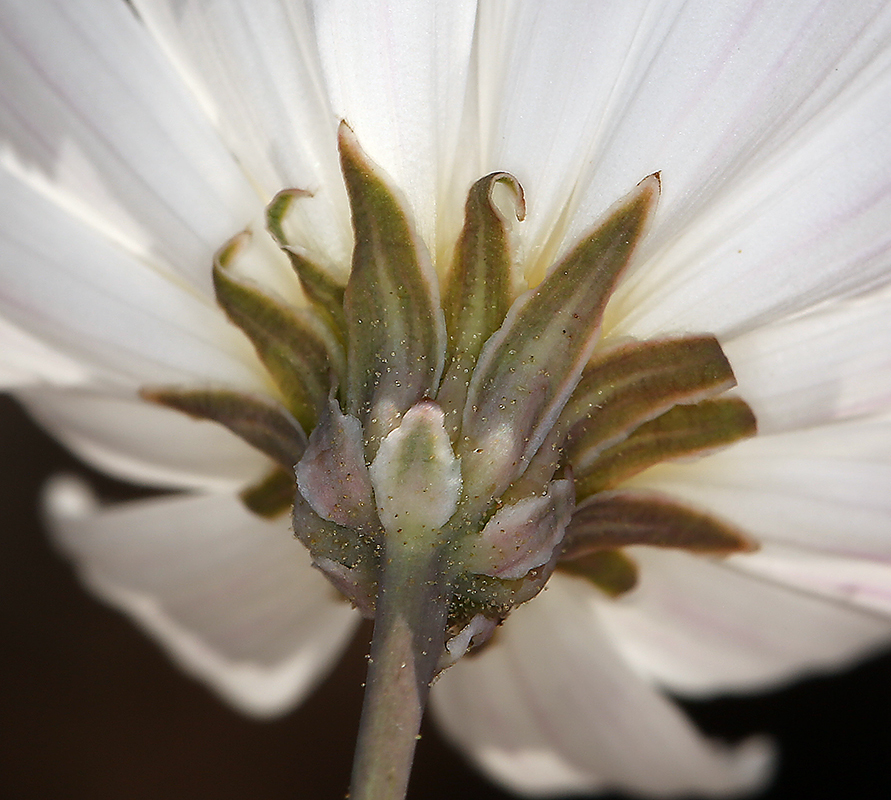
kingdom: Plantae
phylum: Tracheophyta
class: Magnoliopsida
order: Asterales
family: Asteraceae
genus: Atrichoseris
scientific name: Atrichoseris platyphylla
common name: Tobaccoweed
